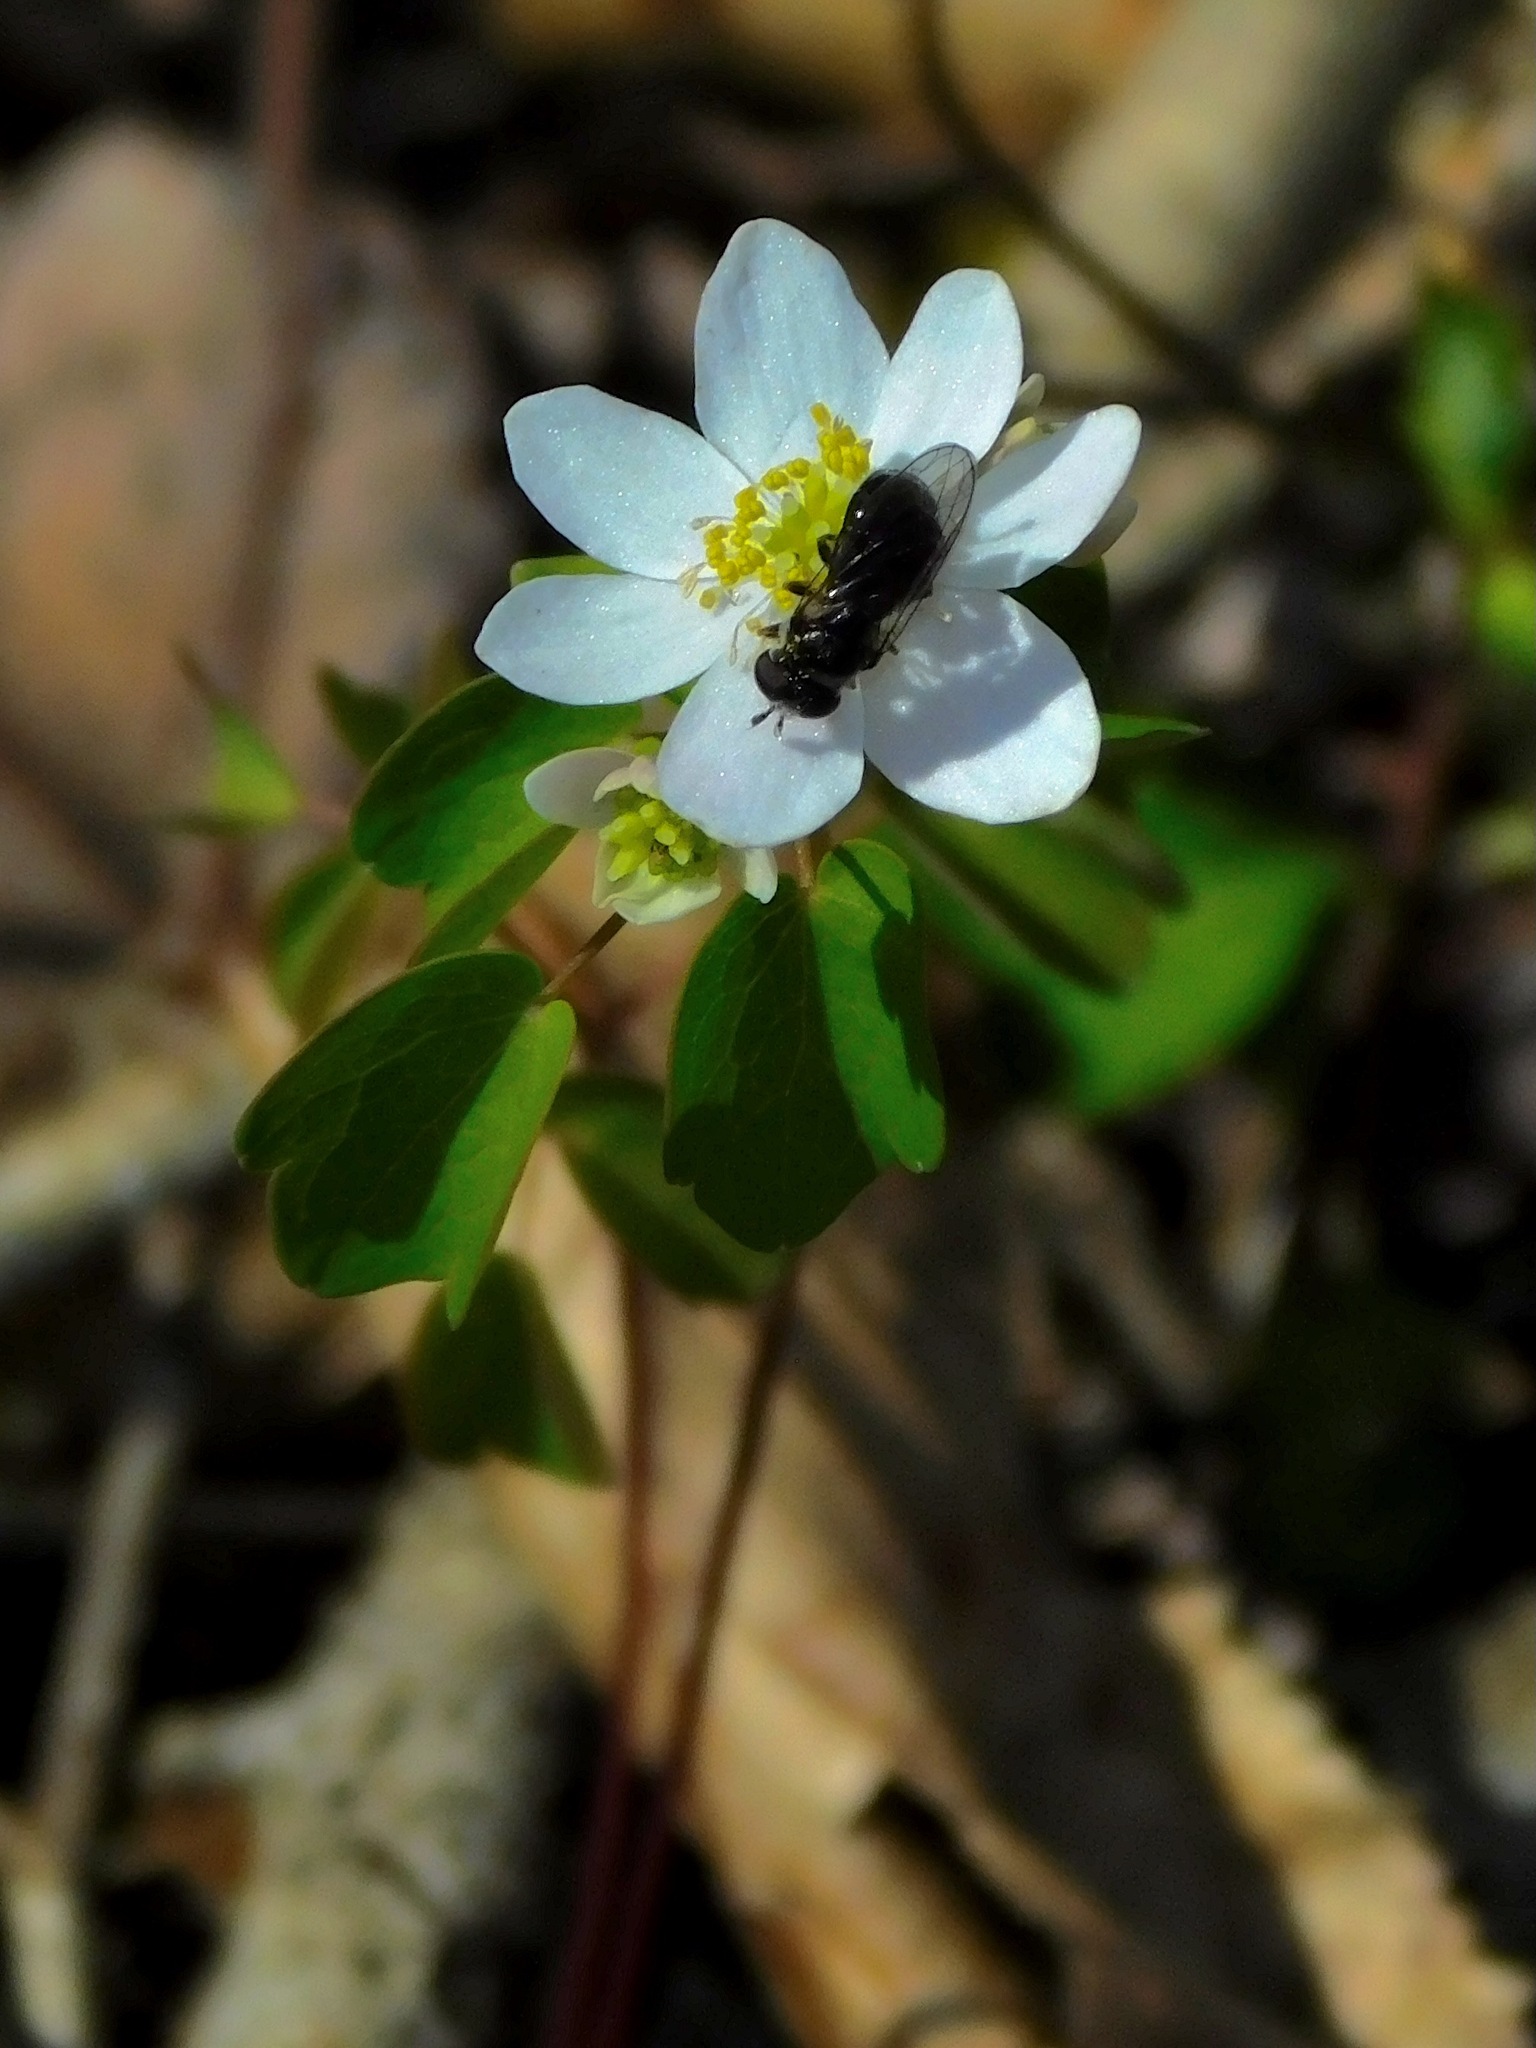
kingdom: Plantae
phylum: Tracheophyta
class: Magnoliopsida
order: Ranunculales
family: Ranunculaceae
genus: Thalictrum
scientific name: Thalictrum thalictroides
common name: Rue-anemone
